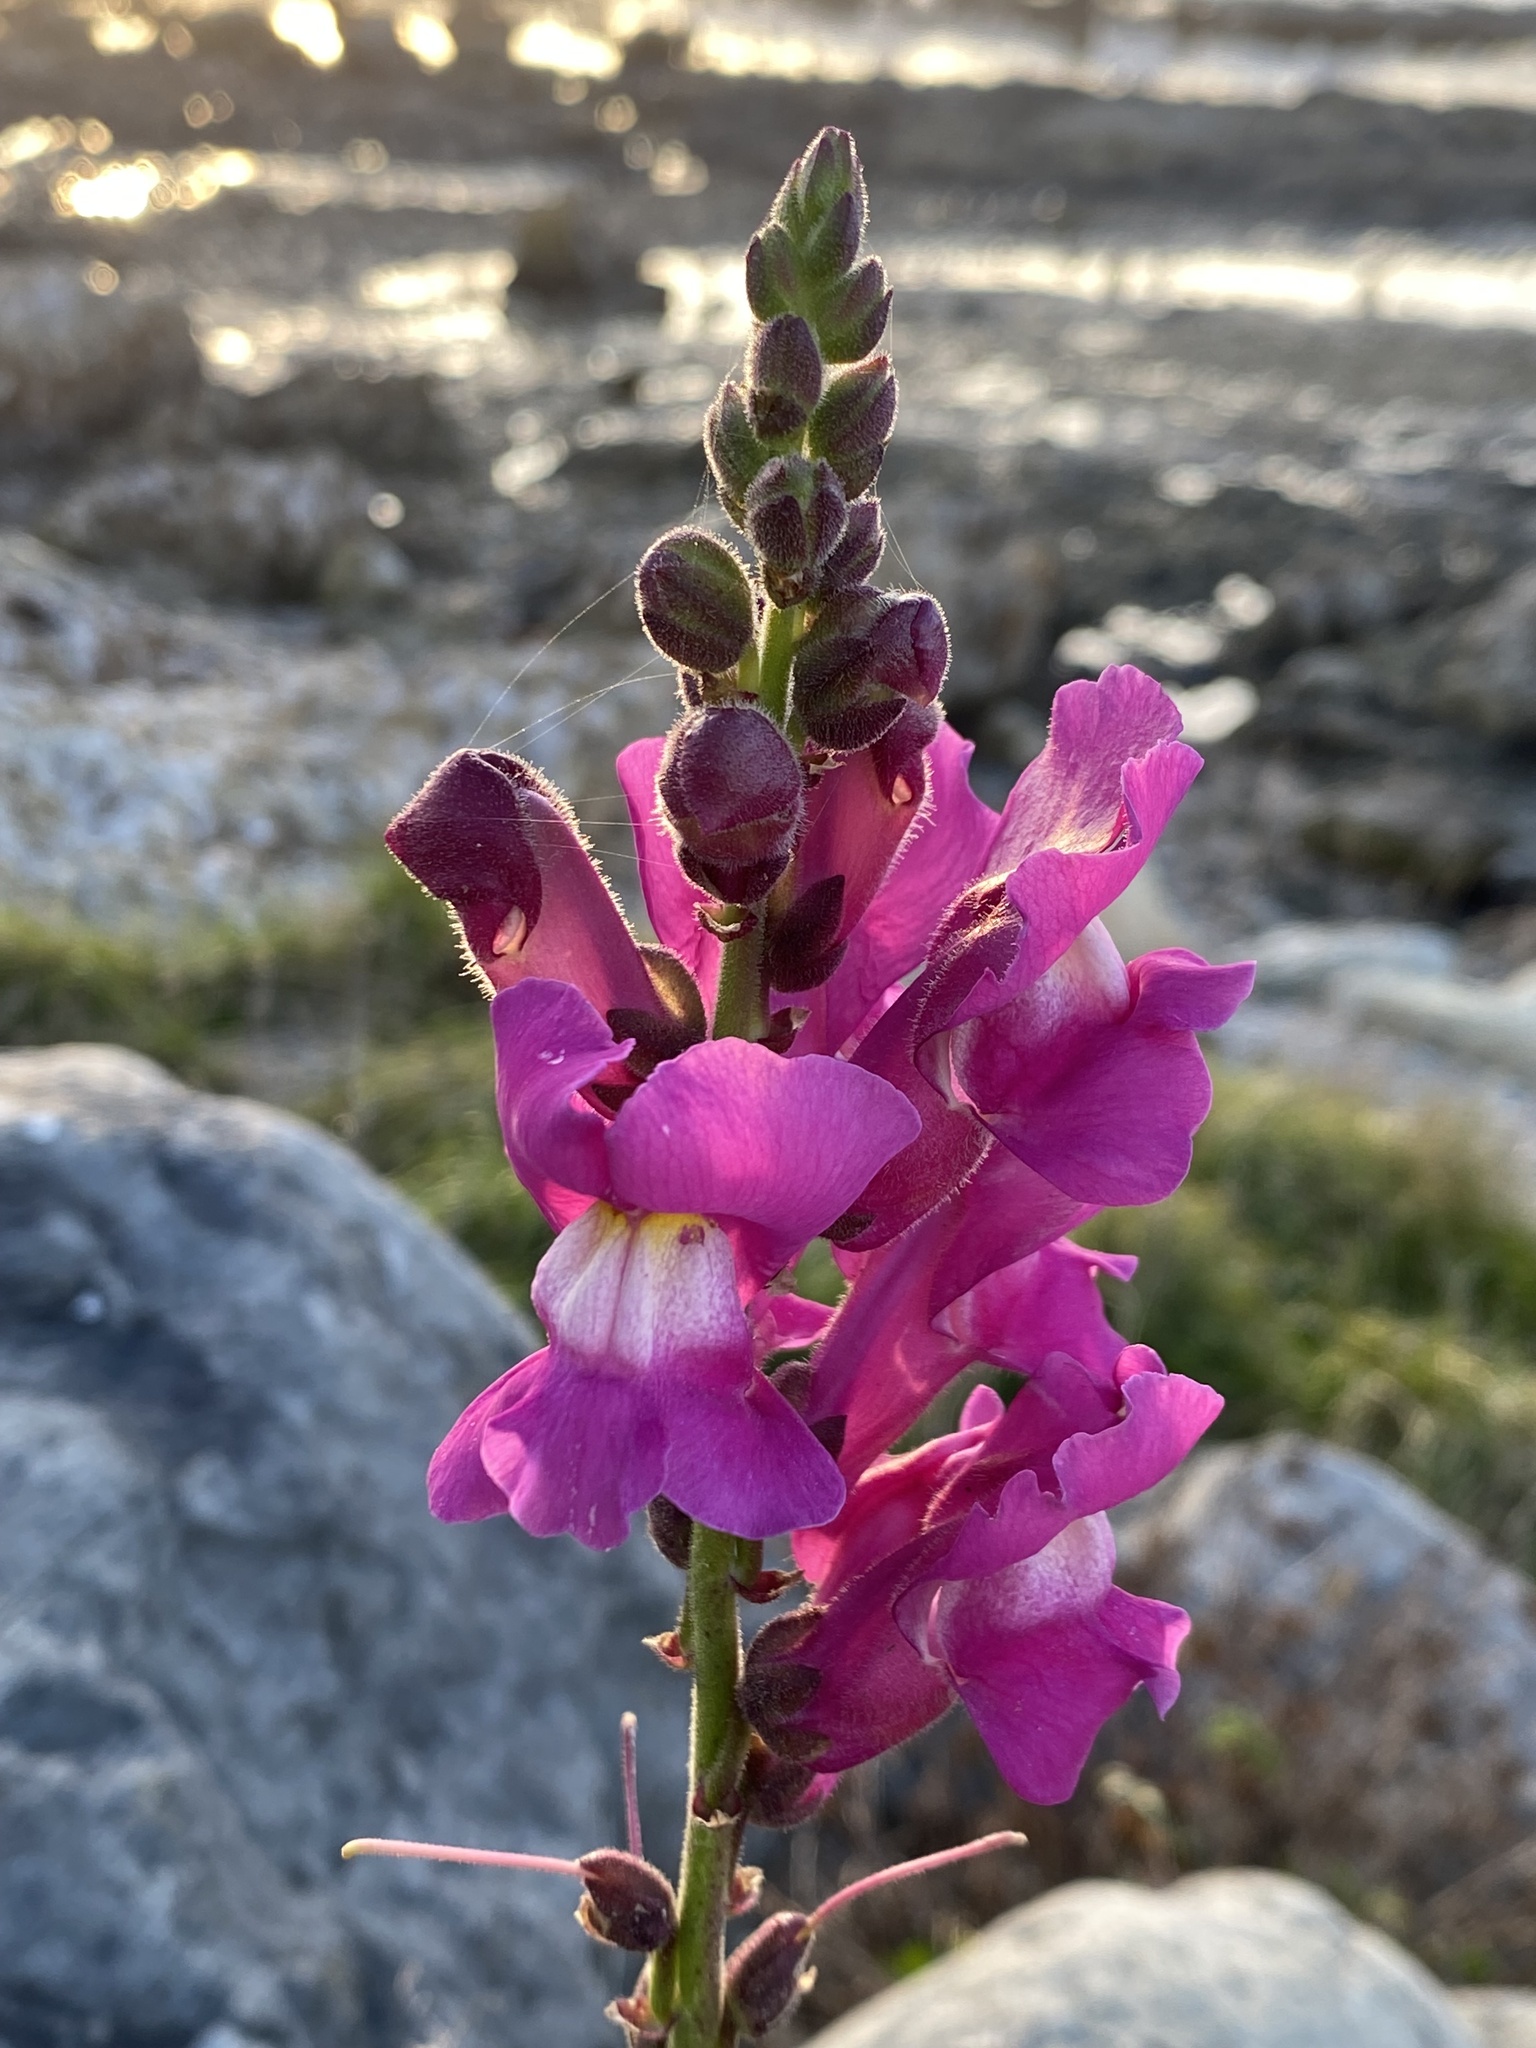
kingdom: Plantae
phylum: Tracheophyta
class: Magnoliopsida
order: Lamiales
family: Plantaginaceae
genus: Antirrhinum
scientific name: Antirrhinum majus
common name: Snapdragon
